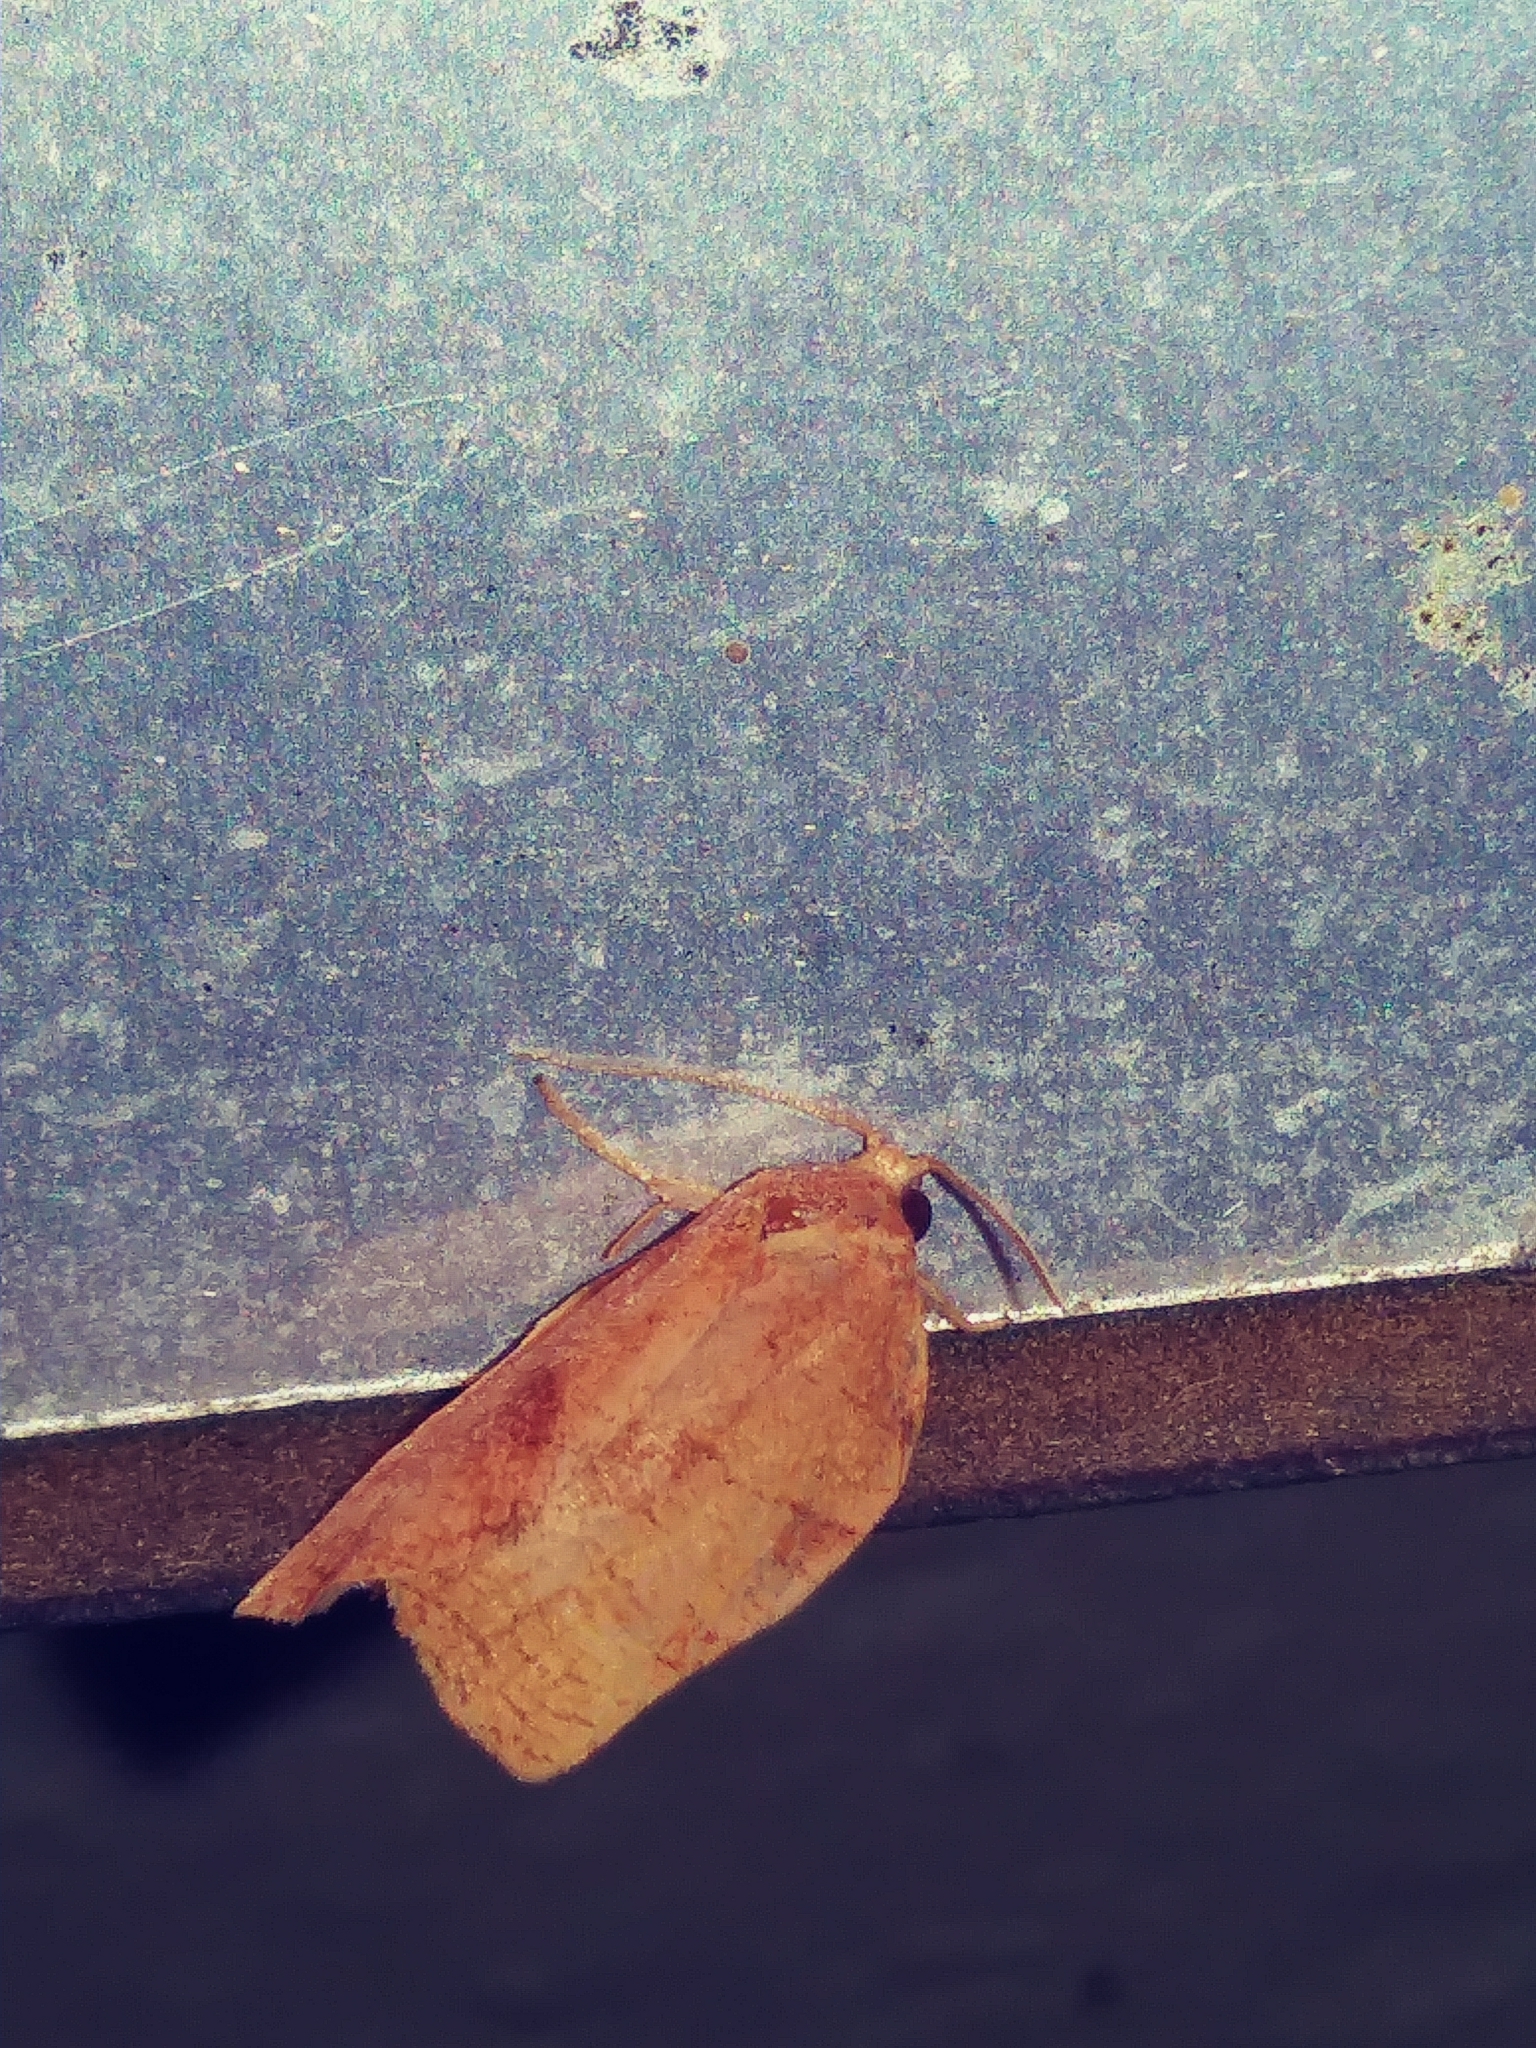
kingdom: Animalia
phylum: Arthropoda
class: Insecta
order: Lepidoptera
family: Tortricidae
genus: Choristoneura
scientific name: Choristoneura rosaceana
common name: Oblique-banded leafroller moth
